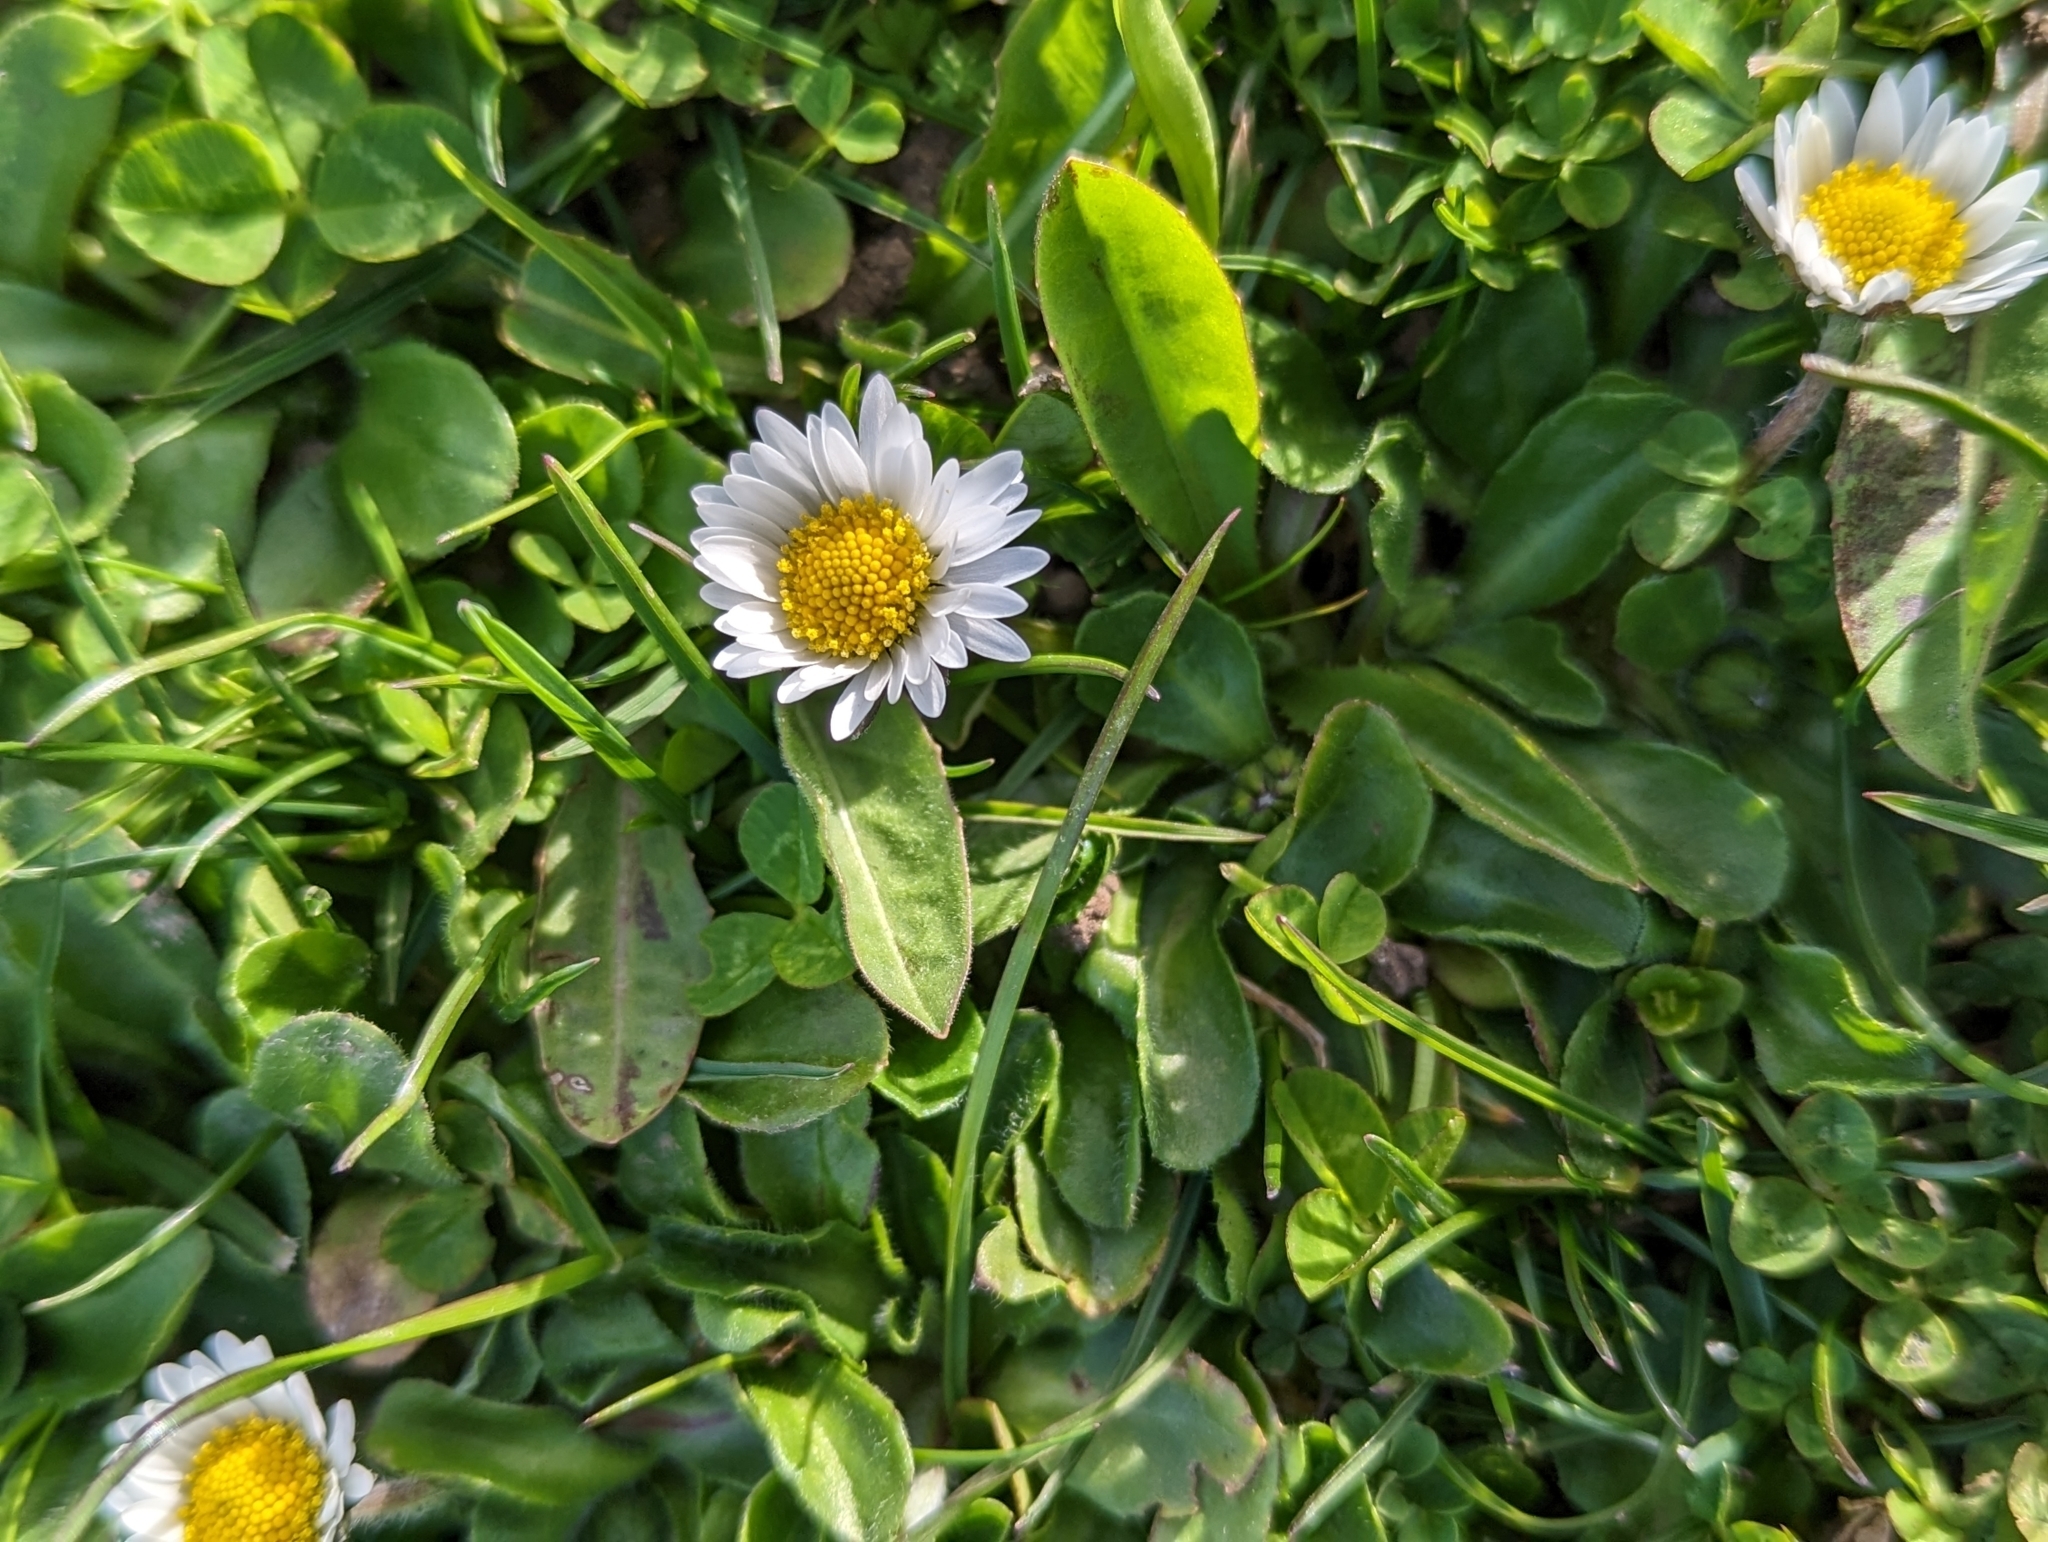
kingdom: Plantae
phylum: Tracheophyta
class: Magnoliopsida
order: Asterales
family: Asteraceae
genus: Bellis
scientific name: Bellis perennis
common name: Lawndaisy
